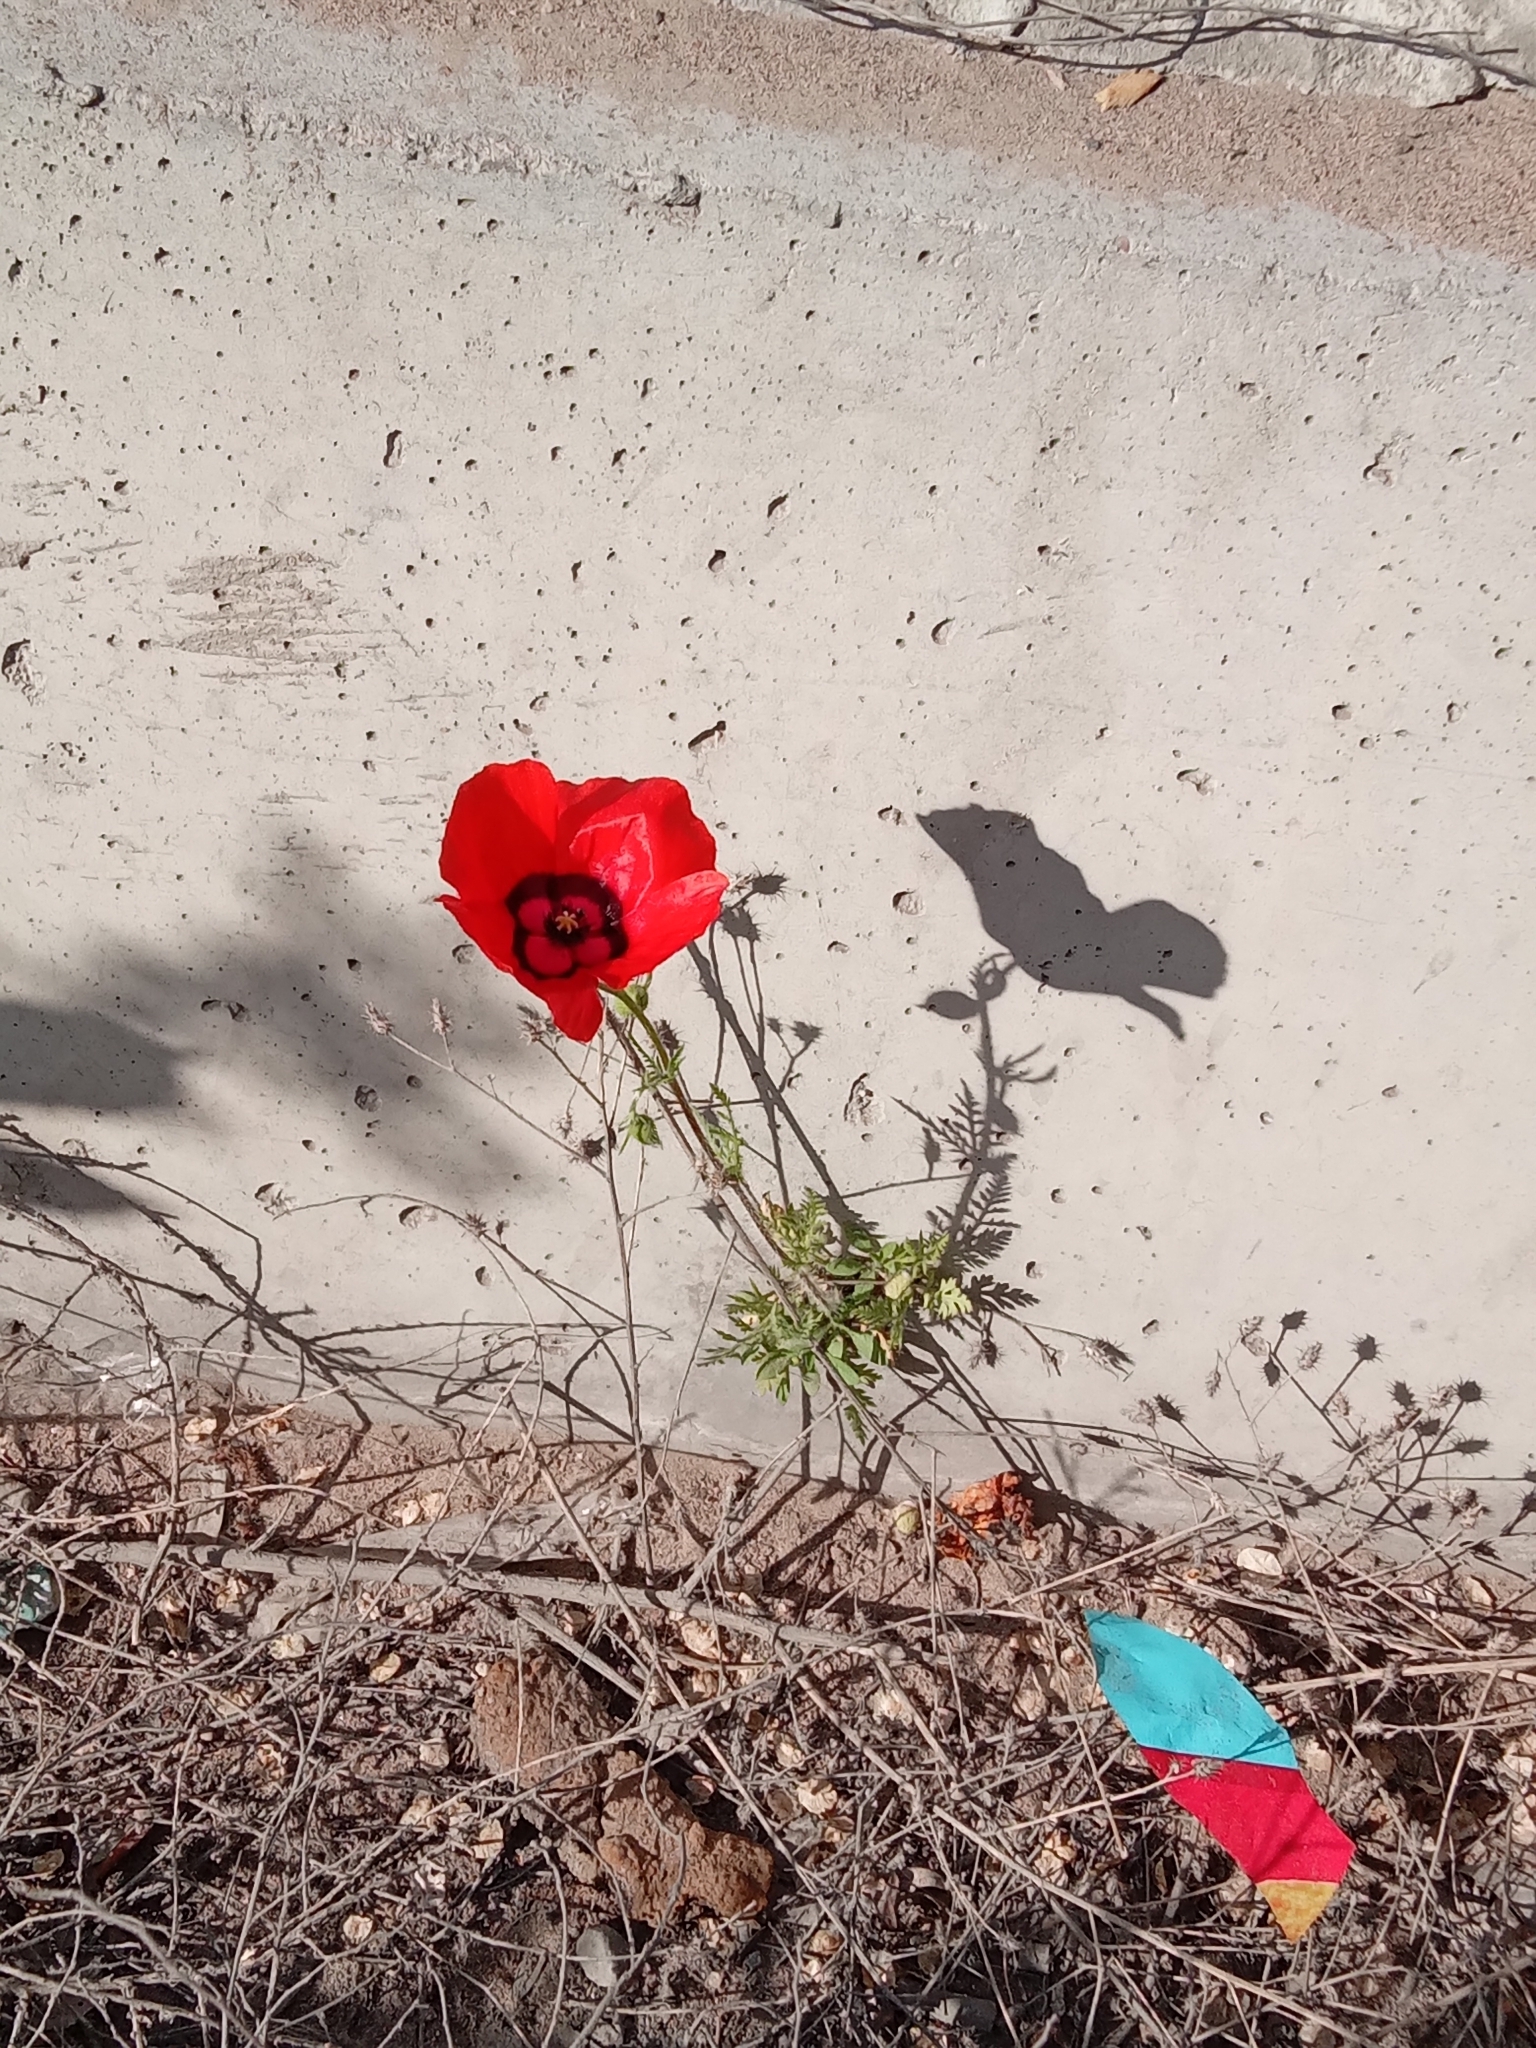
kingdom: Plantae
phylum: Tracheophyta
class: Magnoliopsida
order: Ranunculales
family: Papaveraceae
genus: Roemeria
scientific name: Roemeria pavonina
